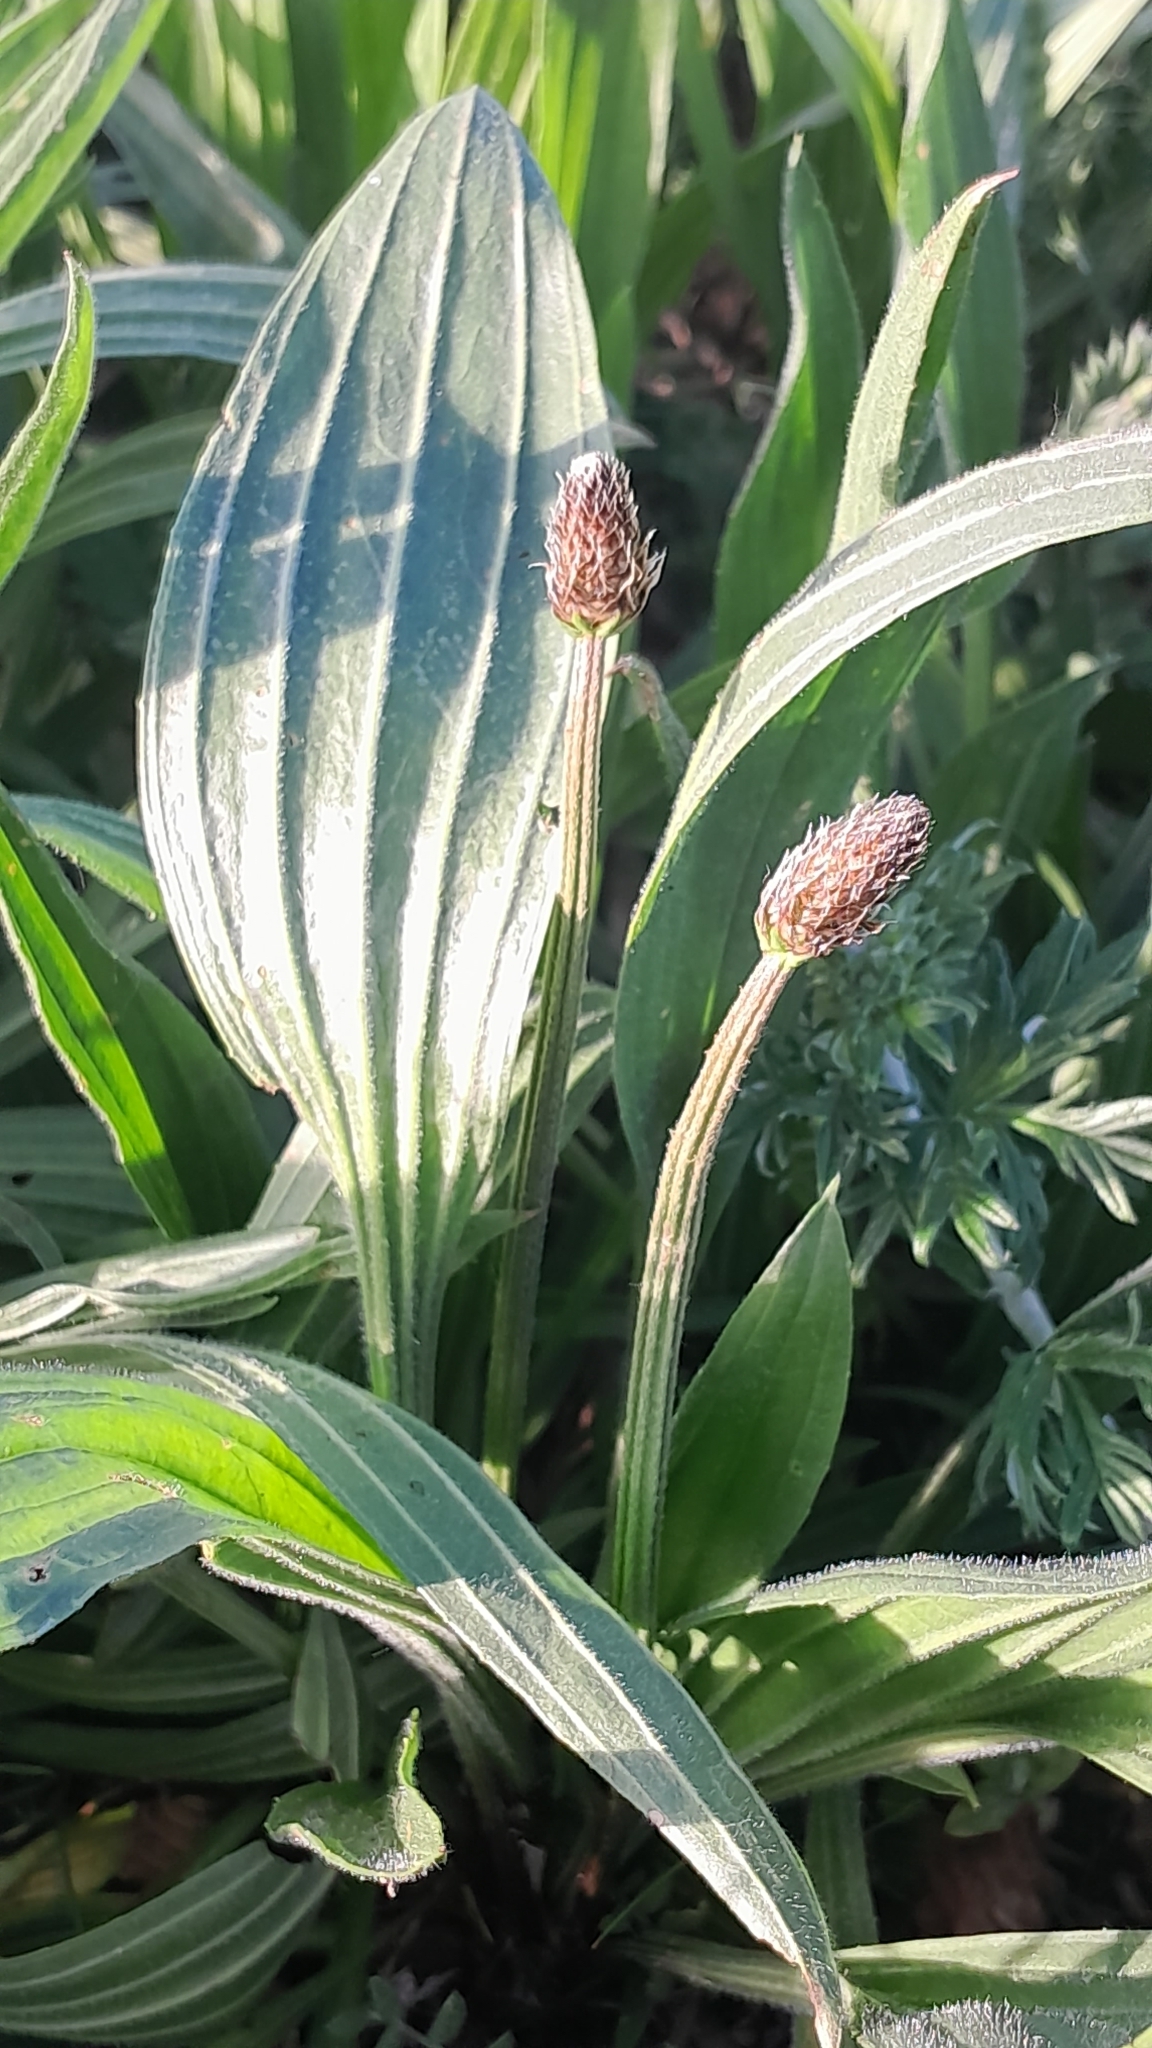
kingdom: Plantae
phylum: Tracheophyta
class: Magnoliopsida
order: Lamiales
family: Plantaginaceae
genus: Plantago
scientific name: Plantago lanceolata
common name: Ribwort plantain
